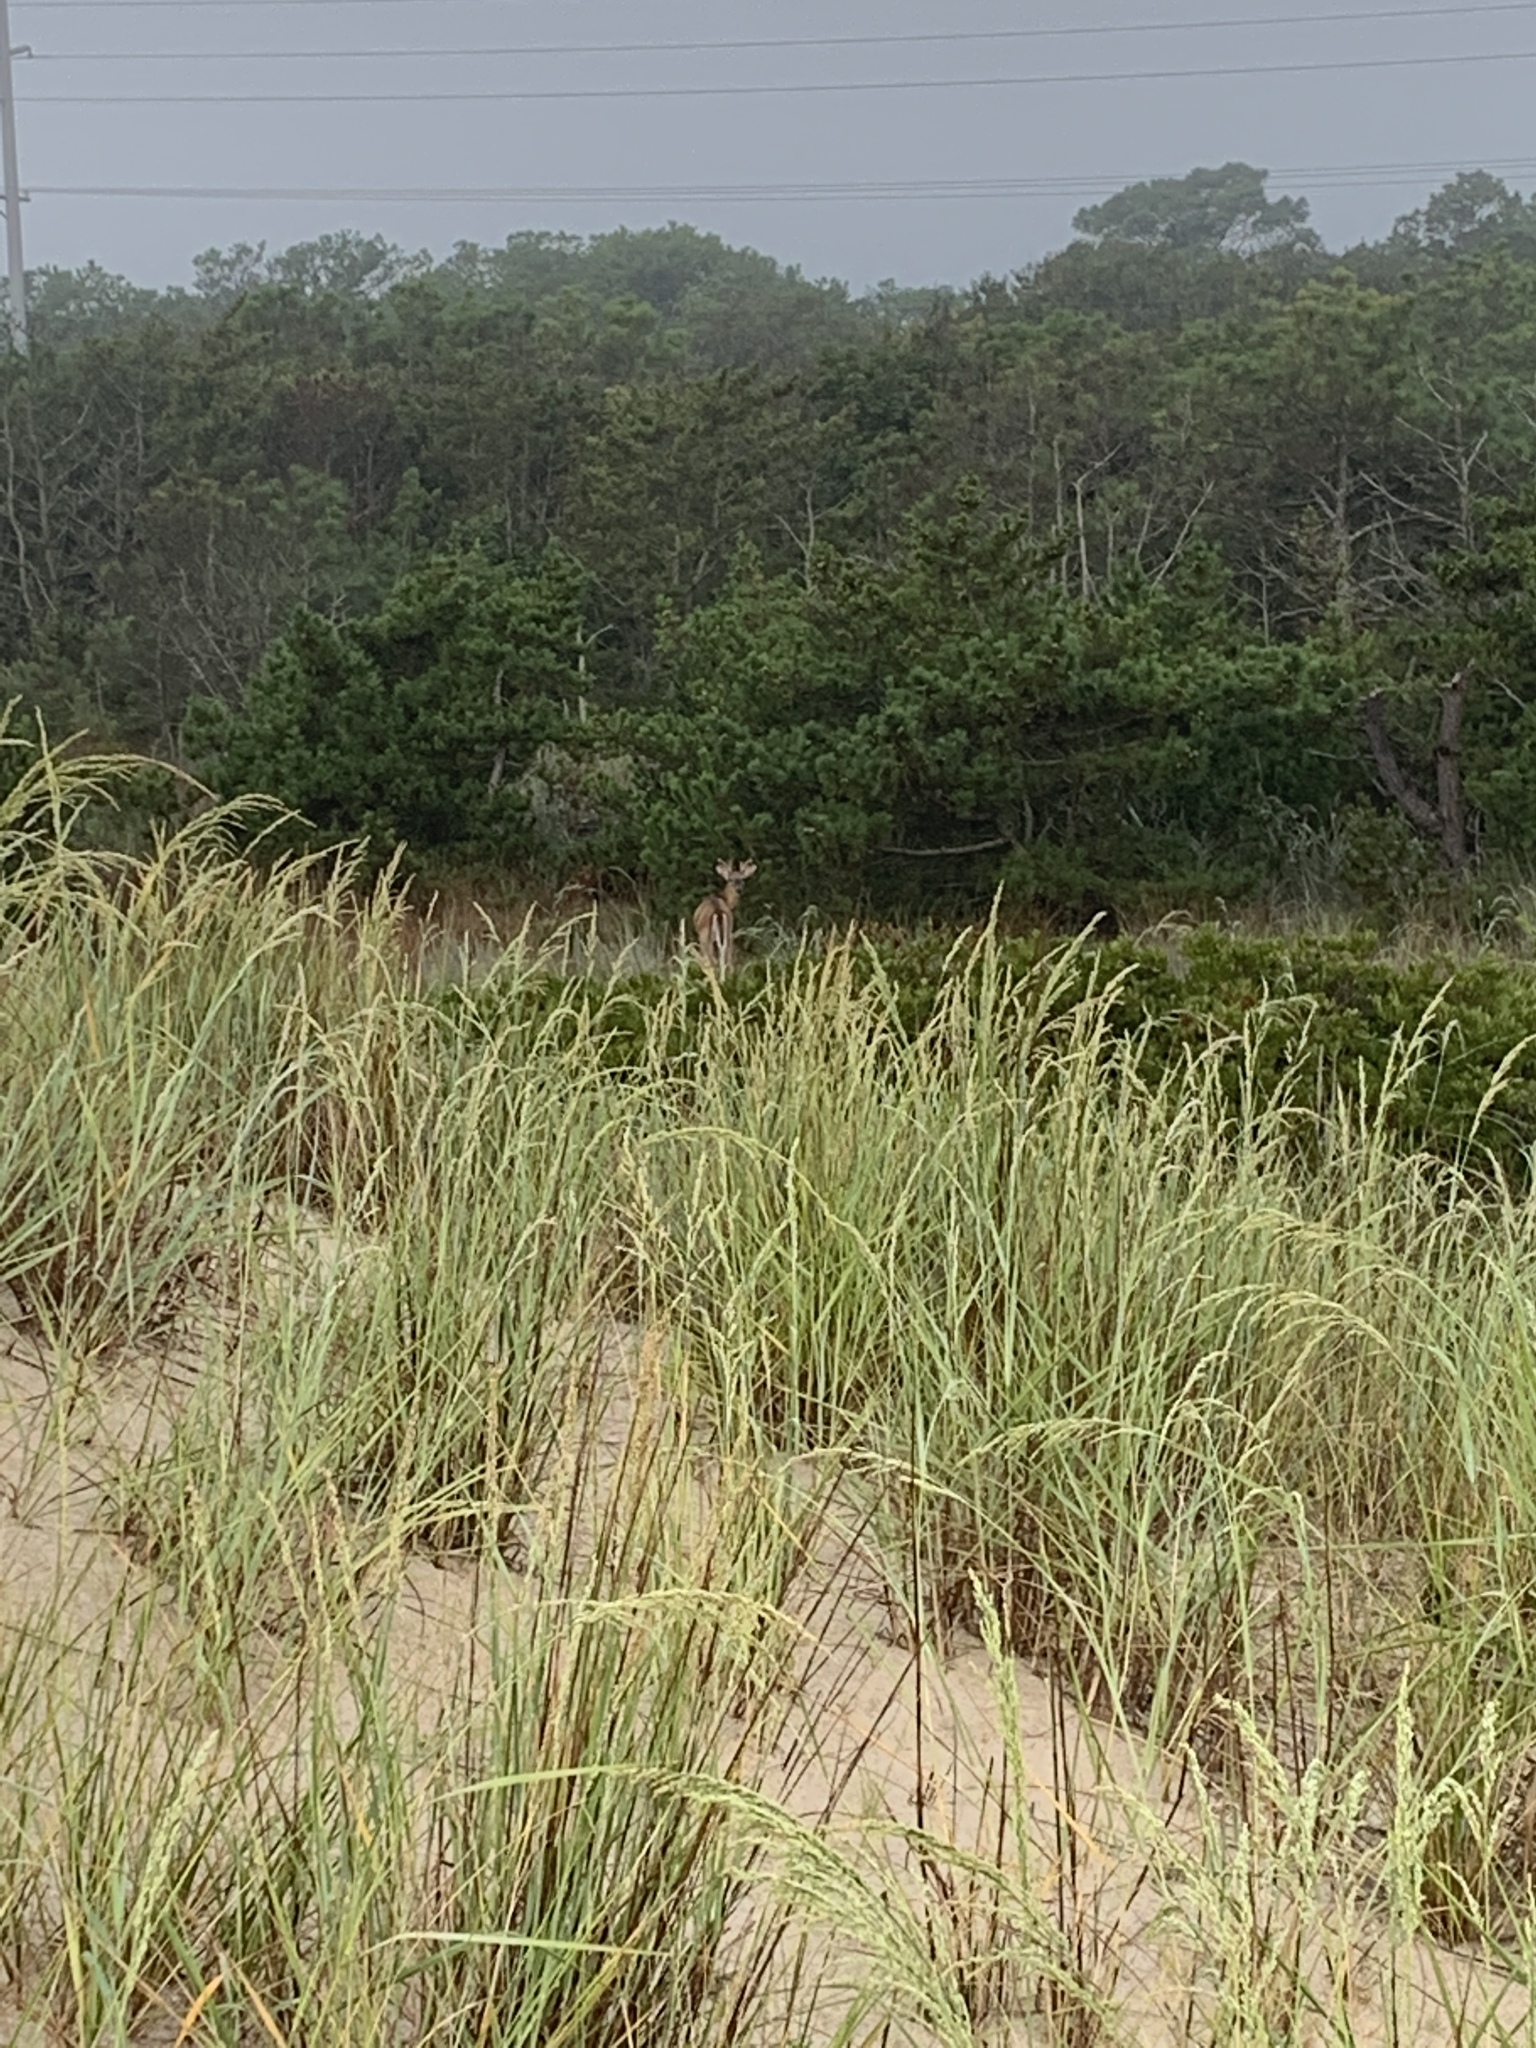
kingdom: Animalia
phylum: Chordata
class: Mammalia
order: Artiodactyla
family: Cervidae
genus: Odocoileus
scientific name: Odocoileus virginianus
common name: White-tailed deer
